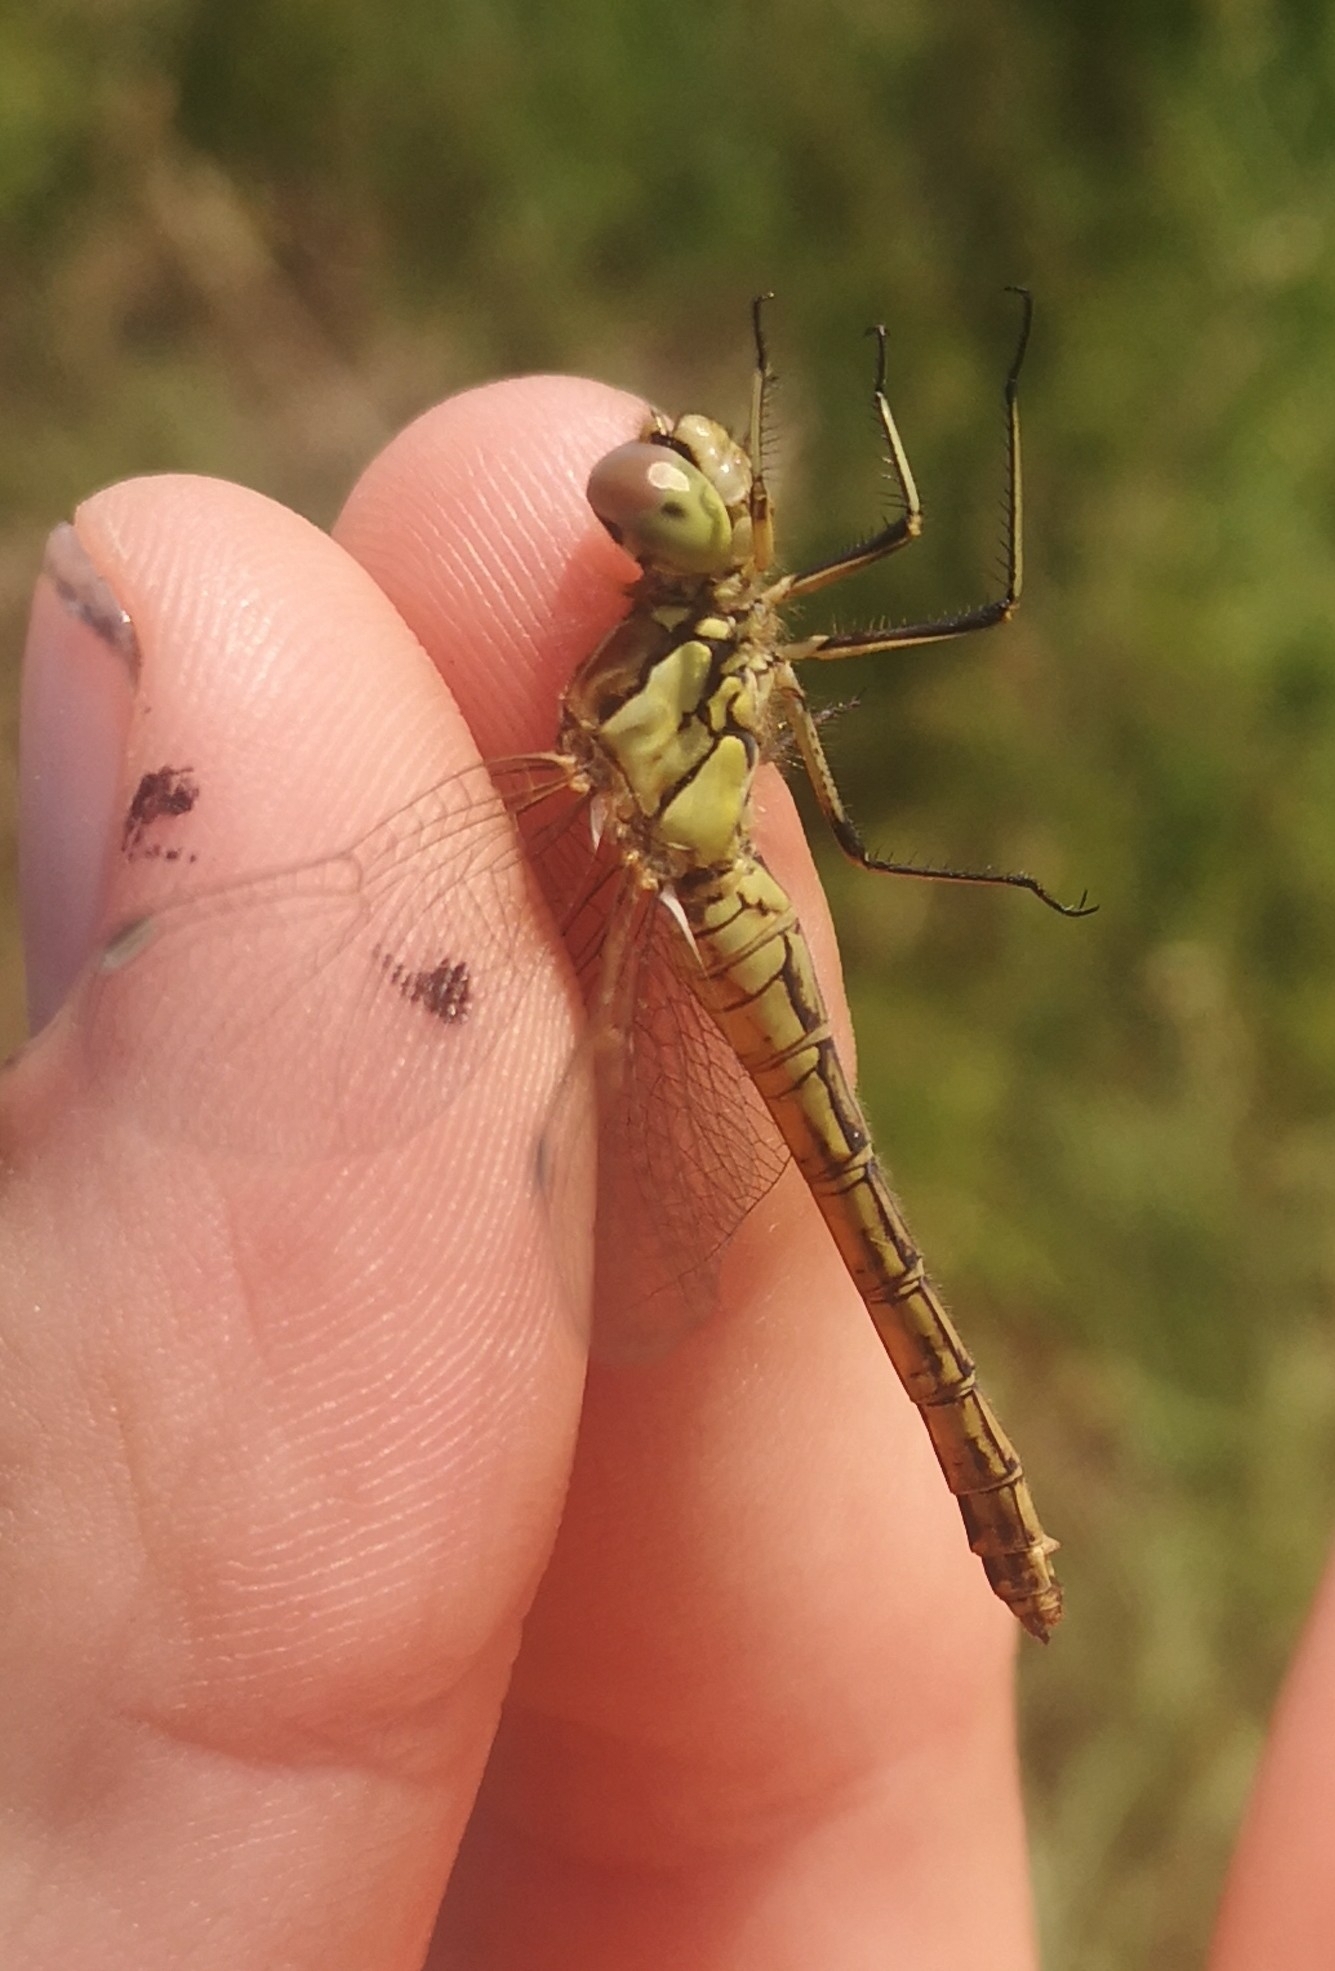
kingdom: Animalia
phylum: Arthropoda
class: Insecta
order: Odonata
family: Libellulidae
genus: Sympetrum
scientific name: Sympetrum vulgatum
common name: Vagrant darter
